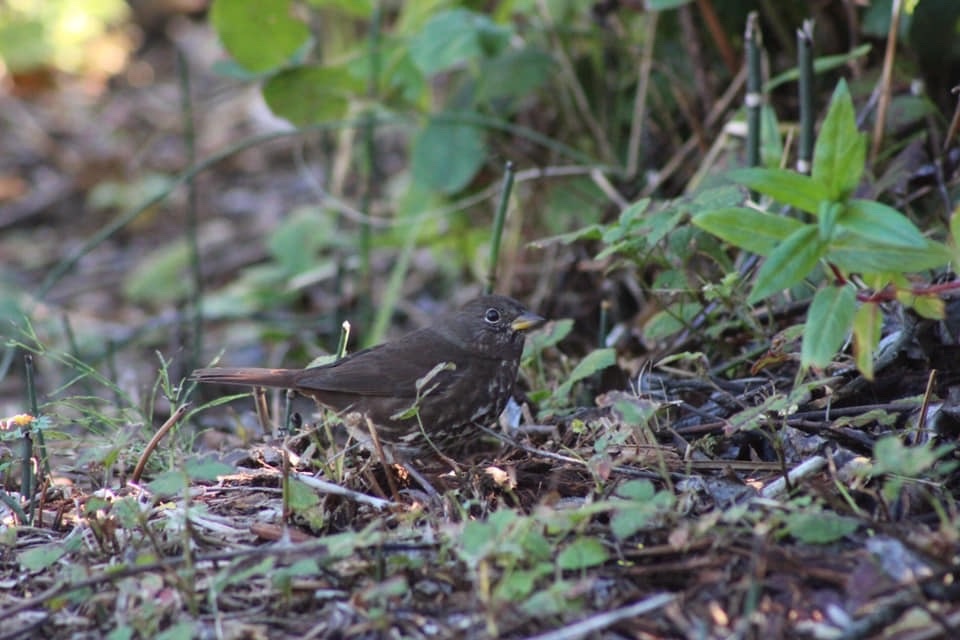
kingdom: Animalia
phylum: Chordata
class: Aves
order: Passeriformes
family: Passerellidae
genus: Passerella
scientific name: Passerella iliaca
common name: Fox sparrow
